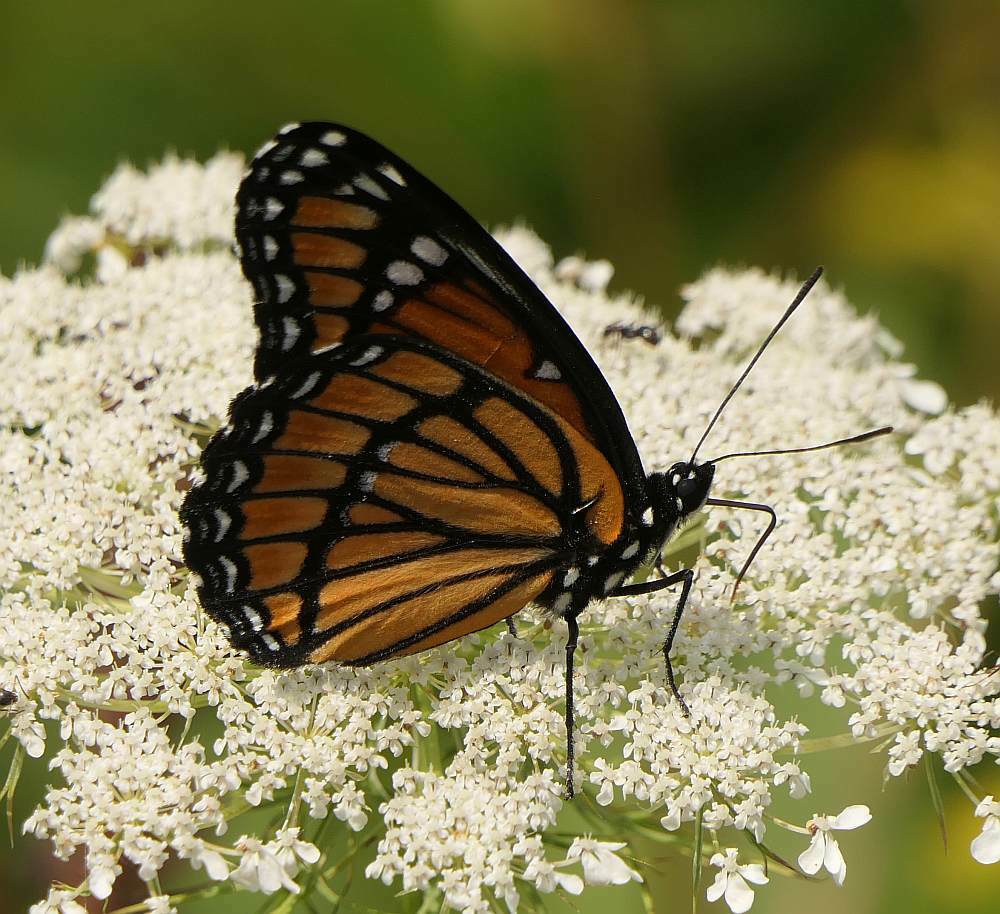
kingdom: Animalia
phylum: Arthropoda
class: Insecta
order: Lepidoptera
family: Nymphalidae
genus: Limenitis
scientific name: Limenitis archippus
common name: Viceroy
